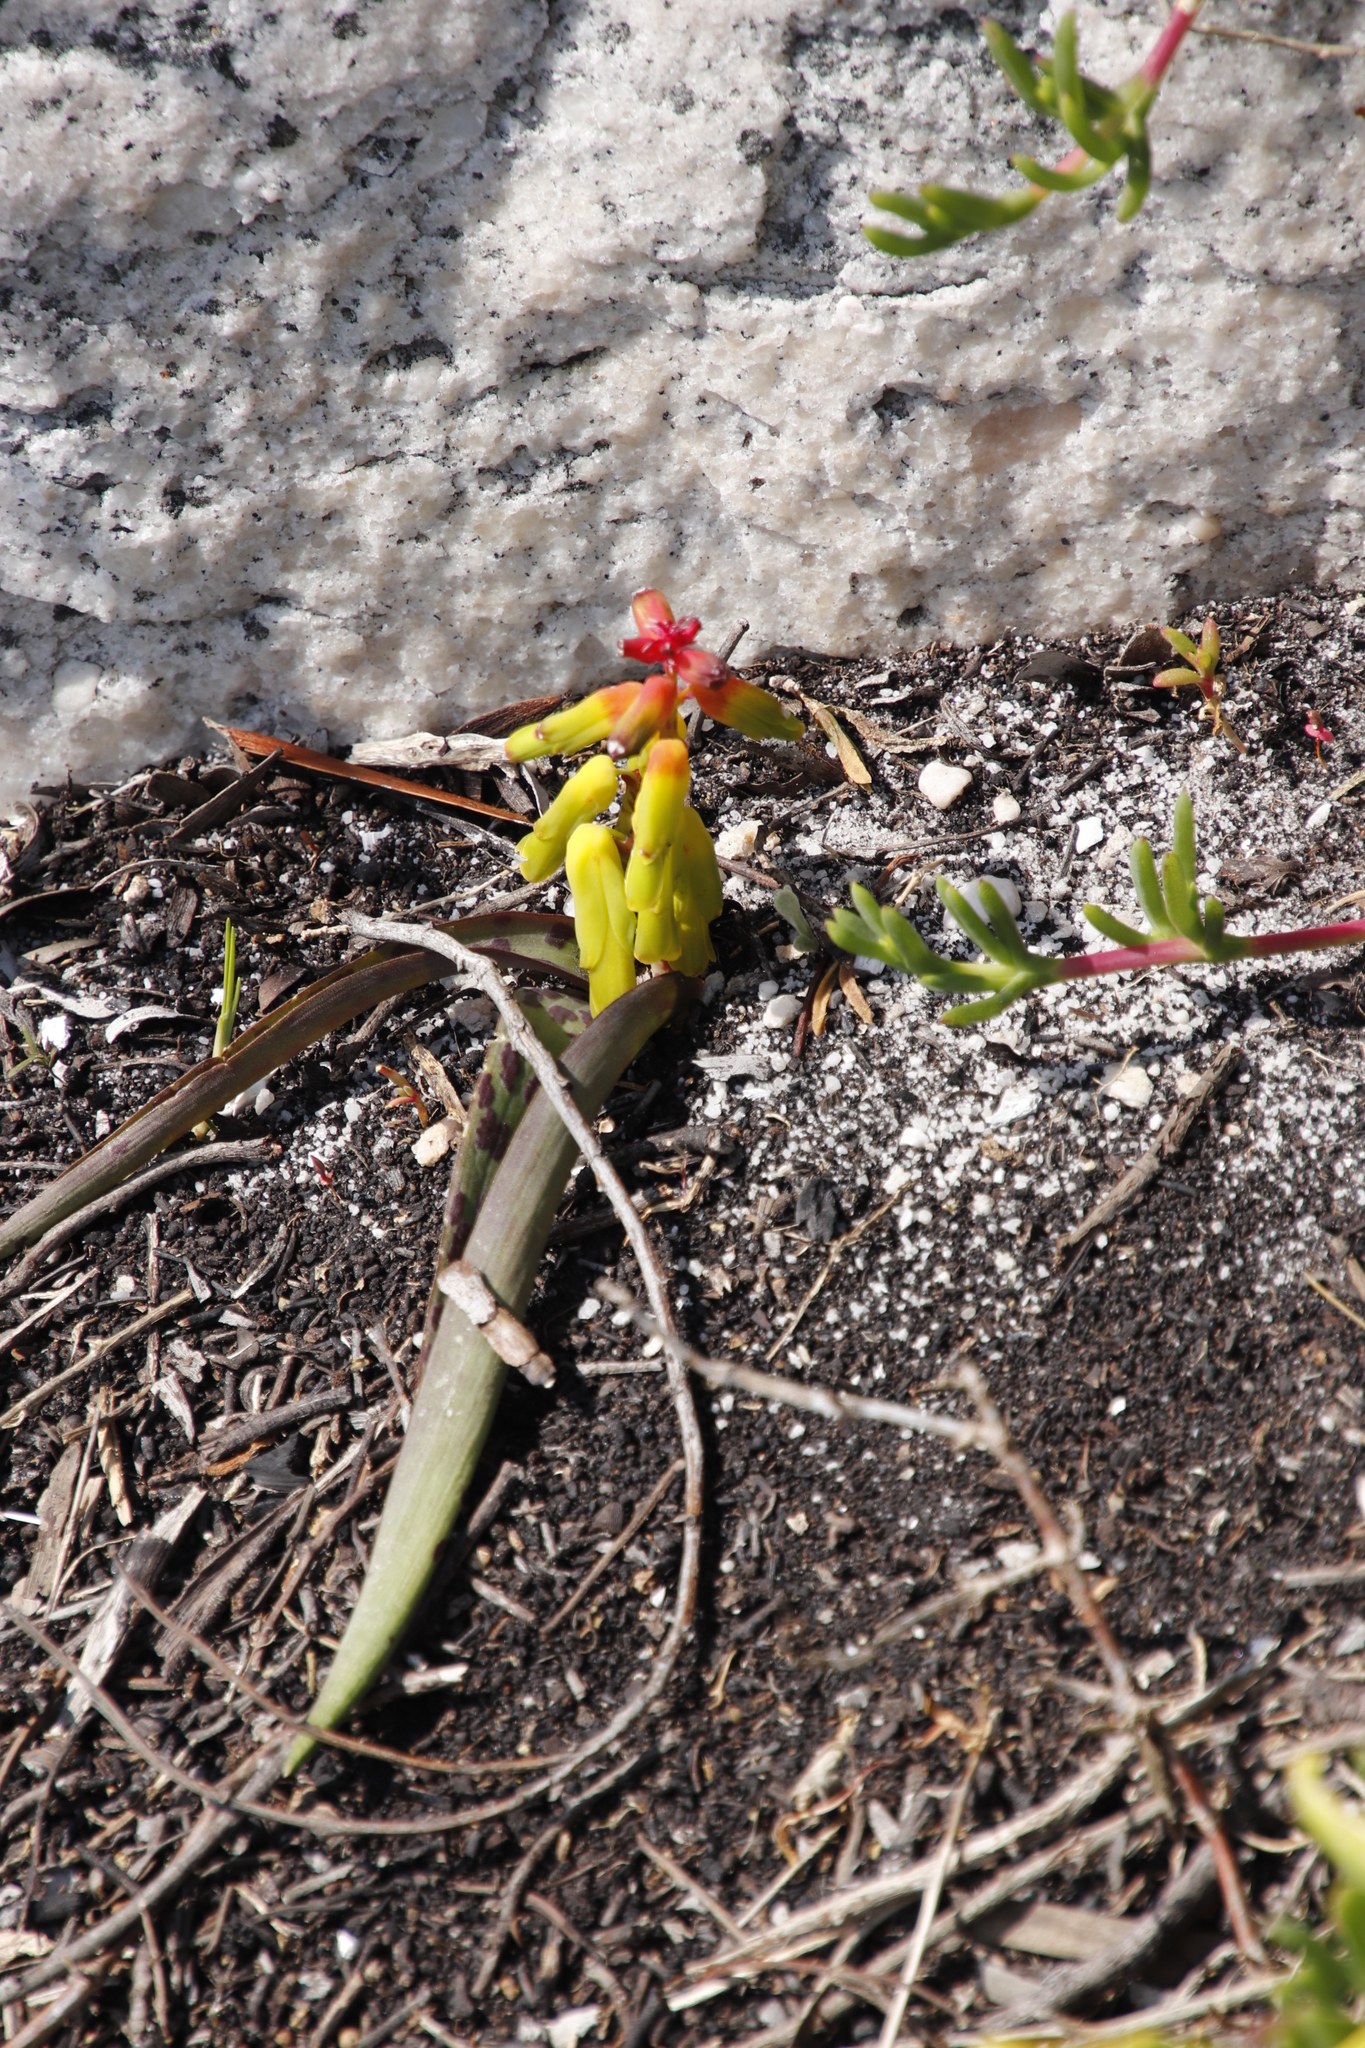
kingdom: Plantae
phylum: Tracheophyta
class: Liliopsida
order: Asparagales
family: Asparagaceae
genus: Lachenalia
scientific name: Lachenalia luteola
